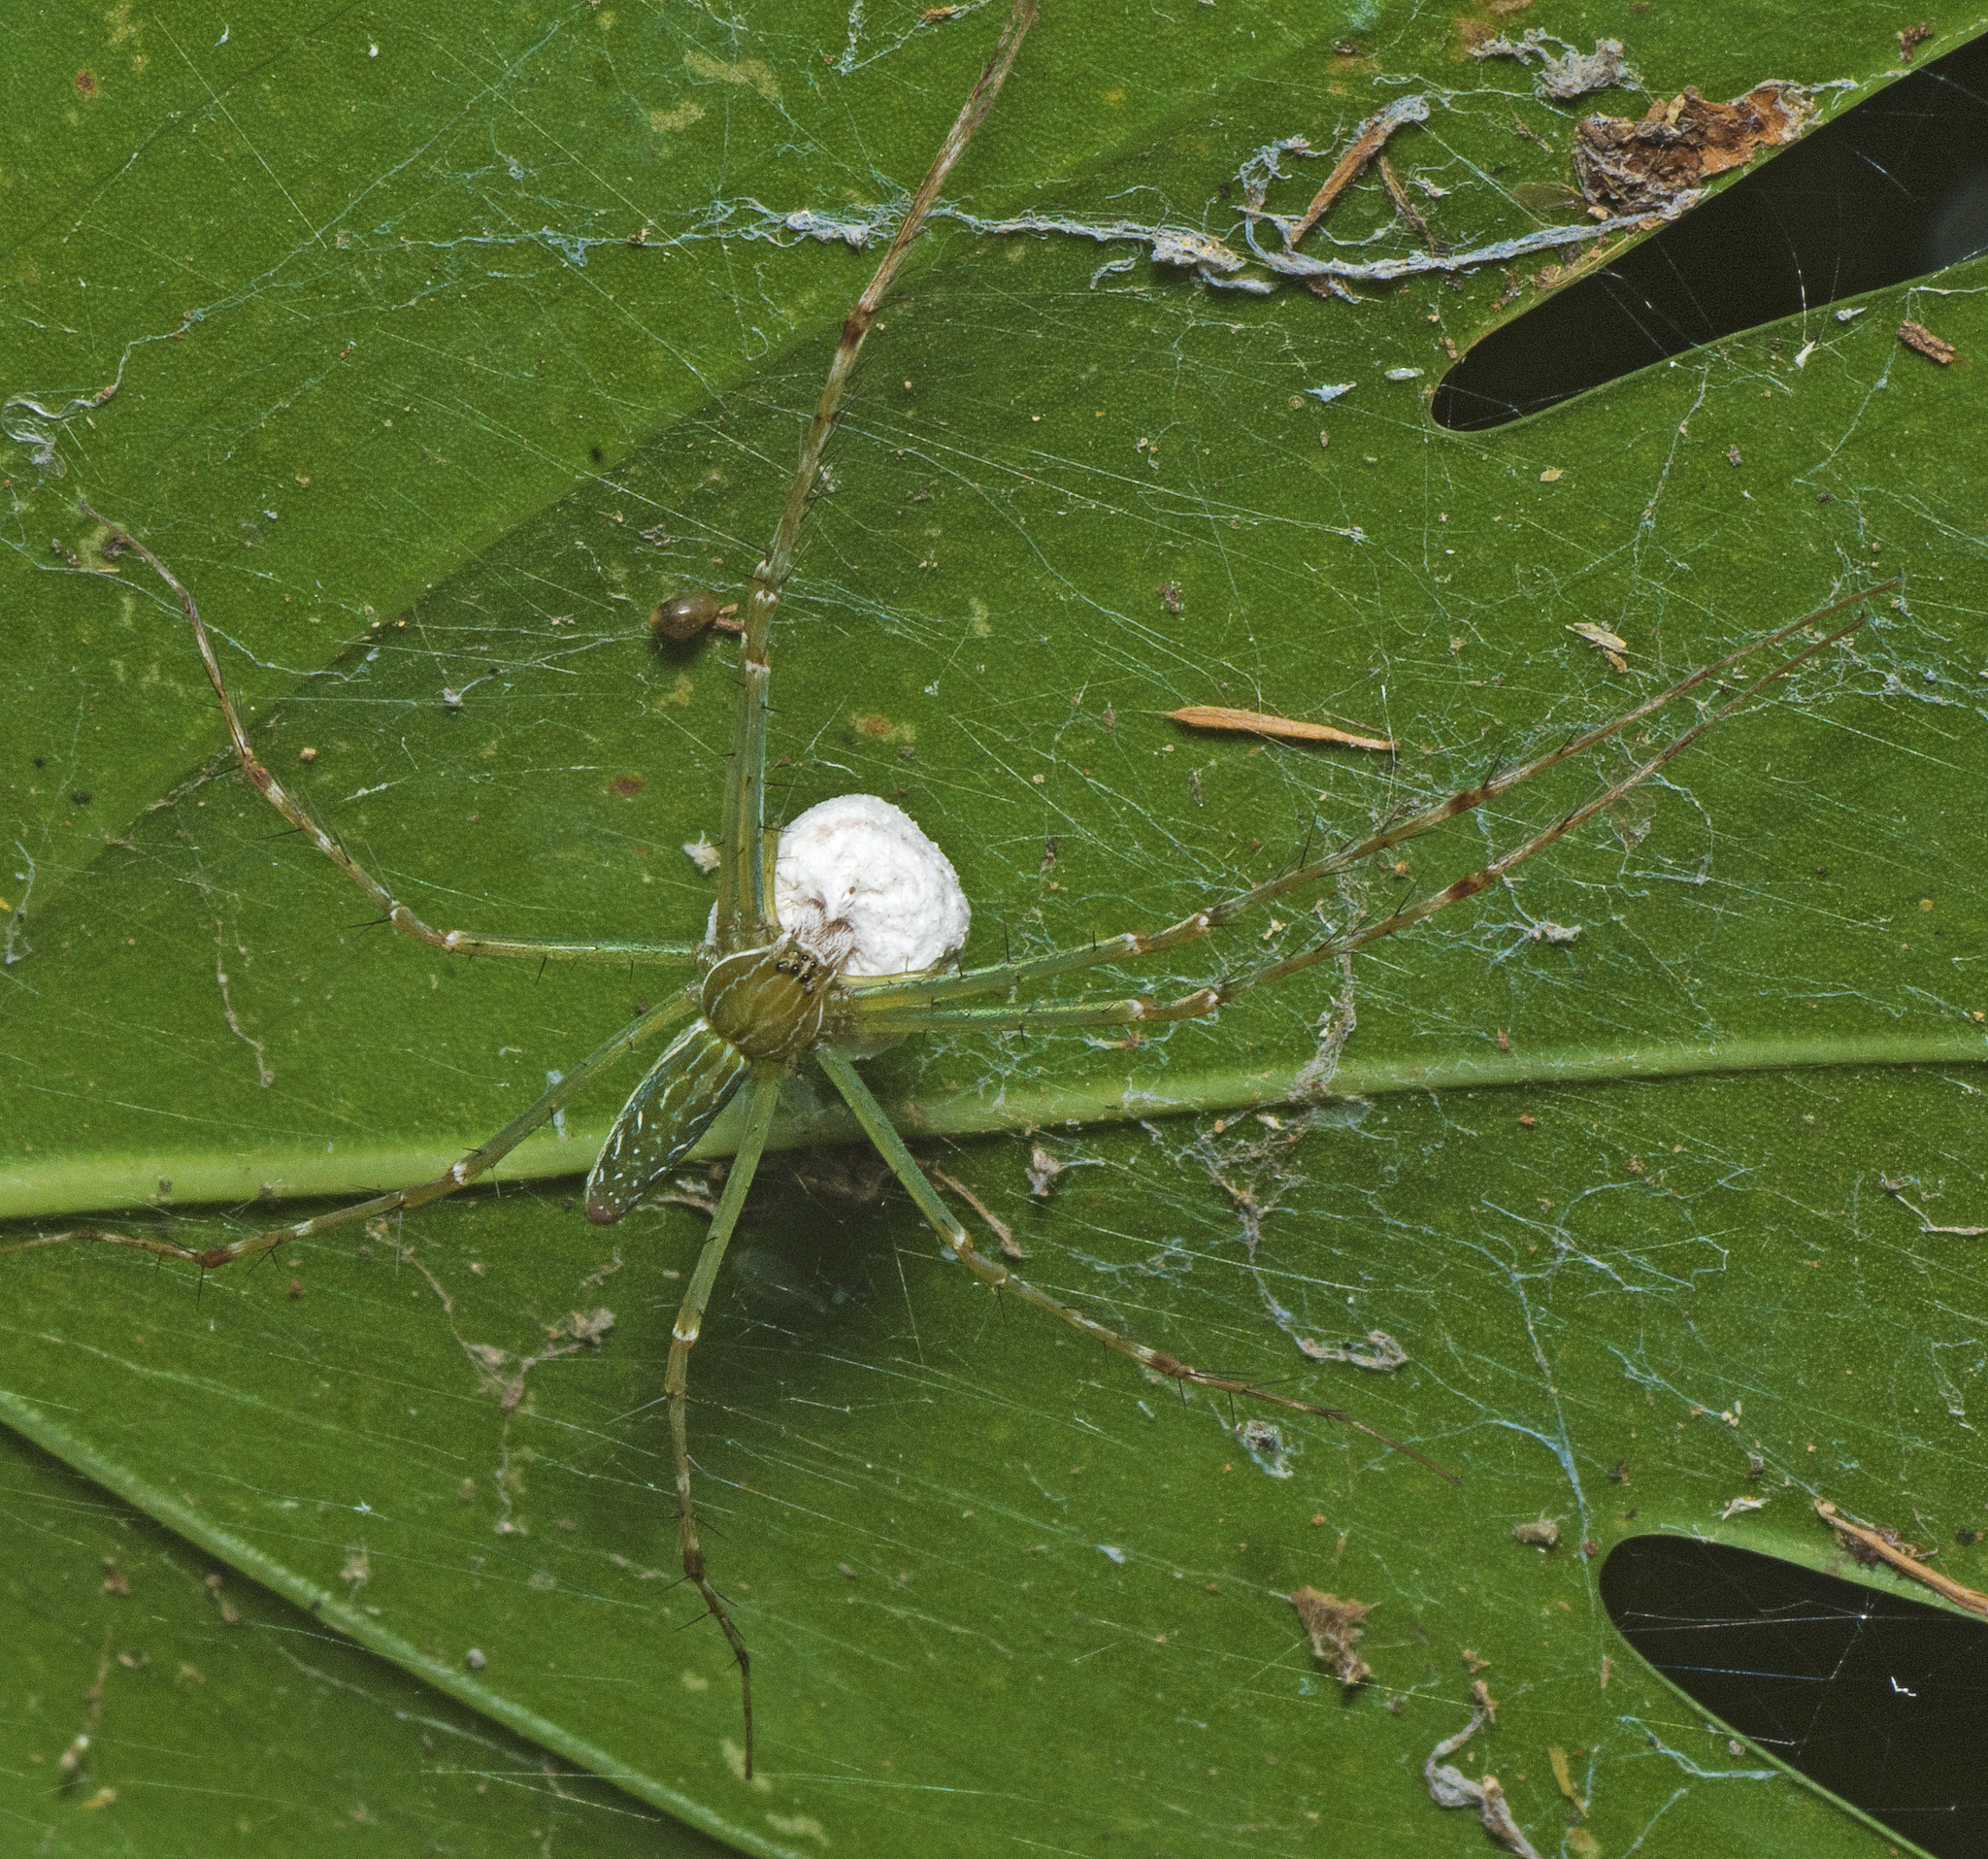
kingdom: Animalia
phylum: Arthropoda
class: Arachnida
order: Araneae
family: Pisauridae
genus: Hygropoda
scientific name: Hygropoda lineata
